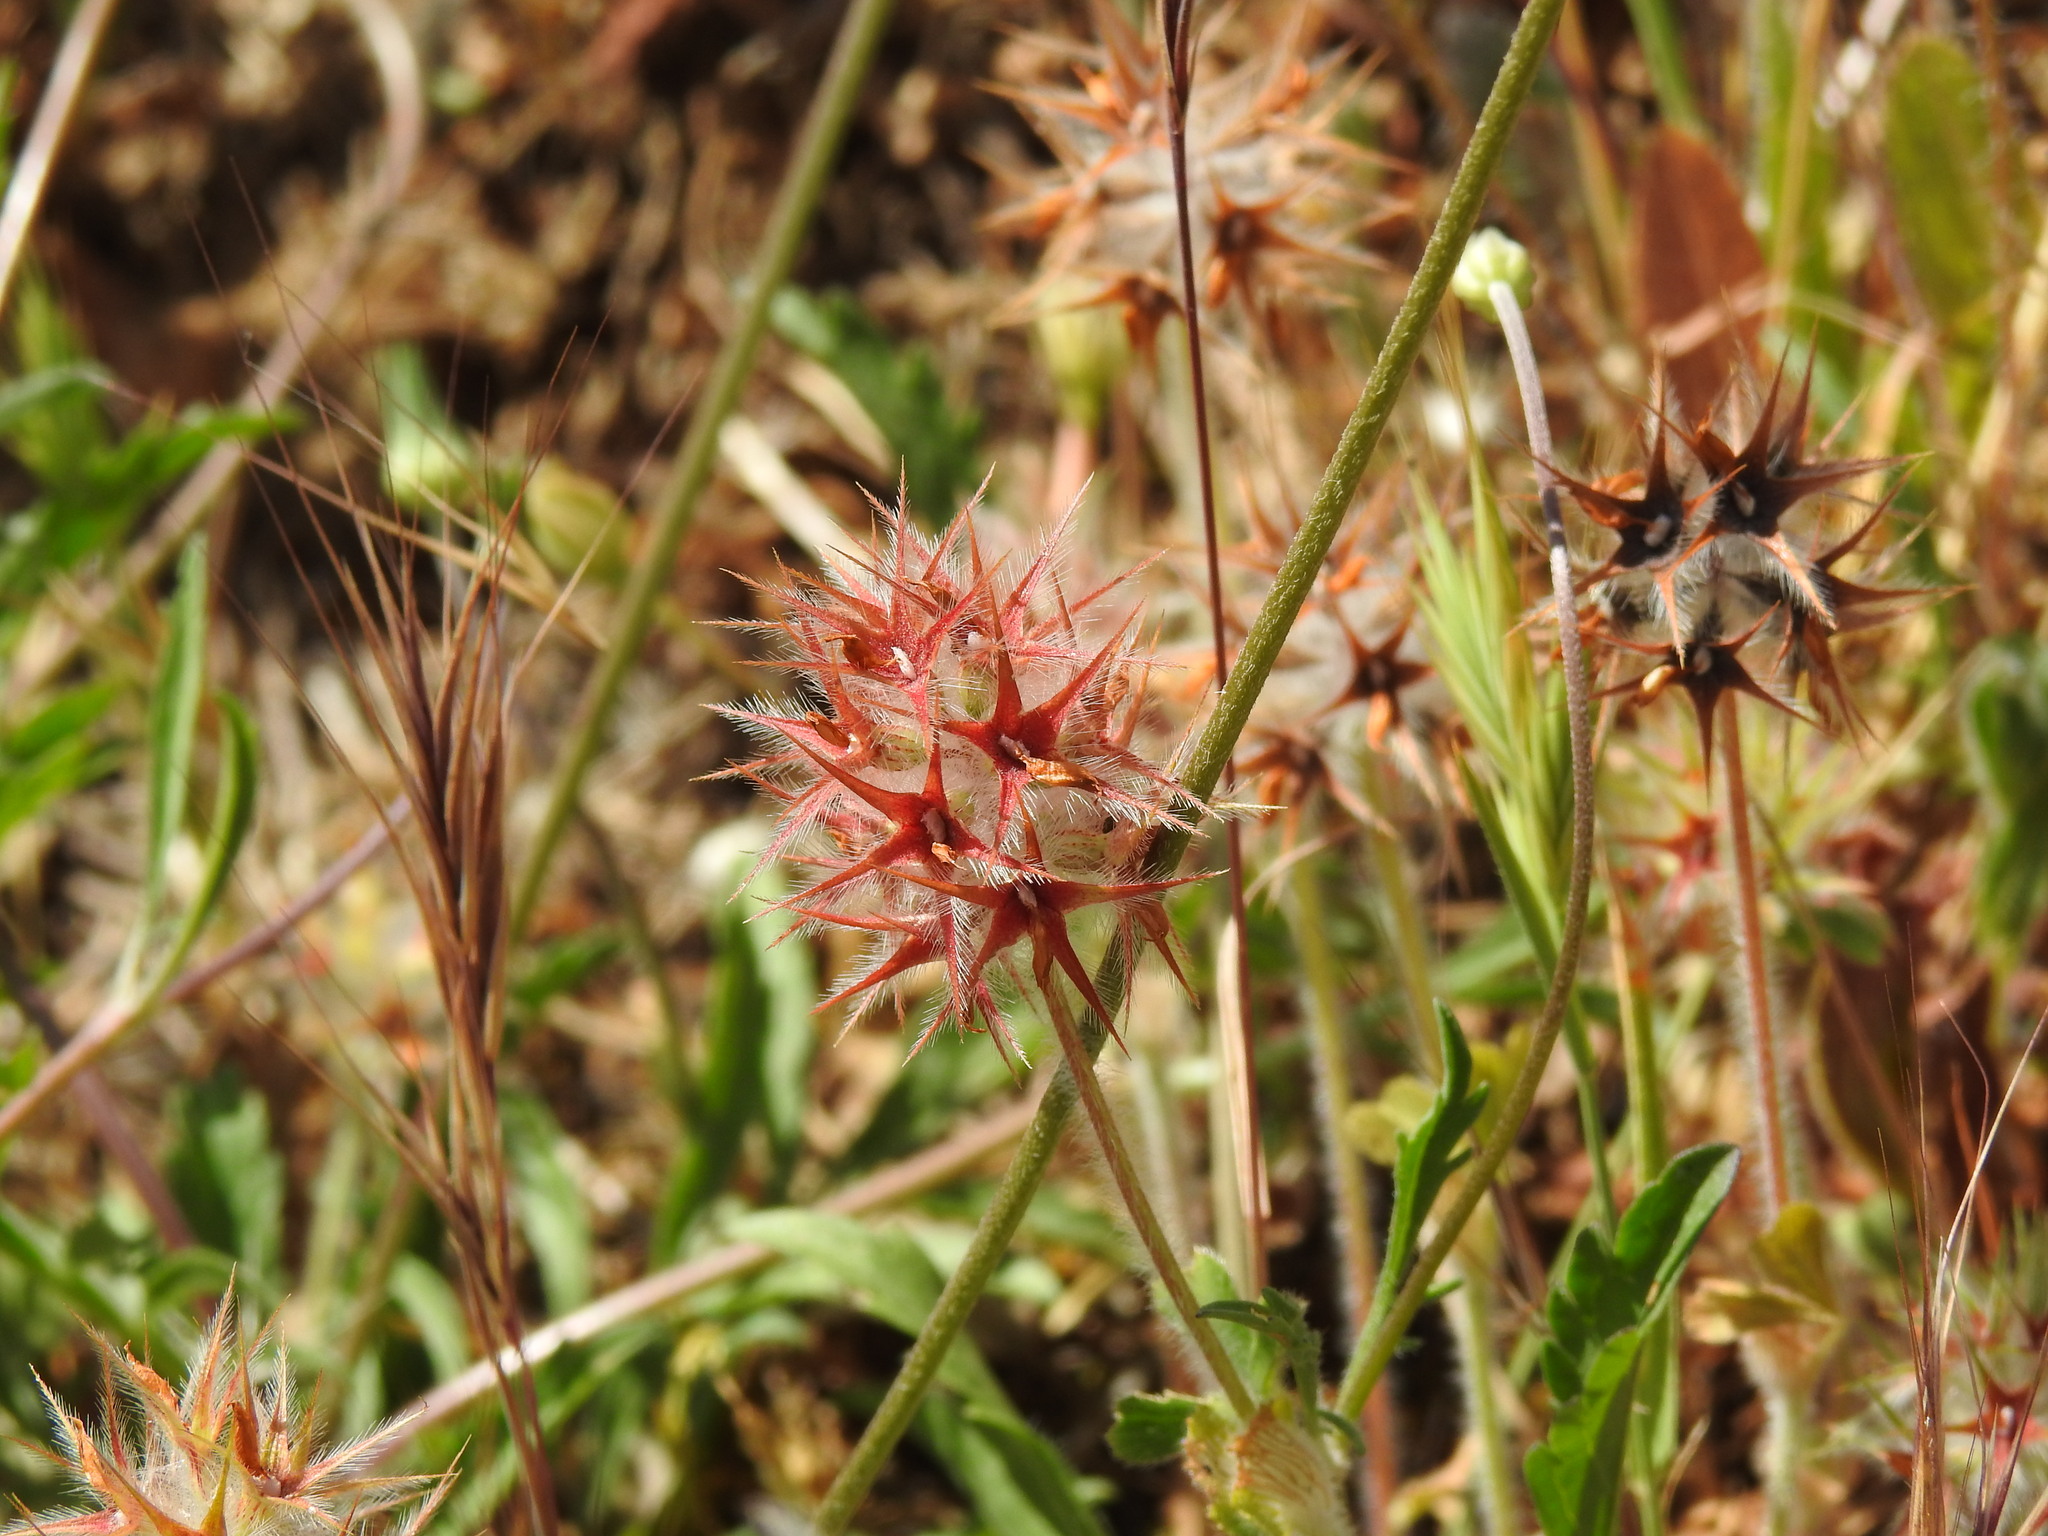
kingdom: Plantae
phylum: Tracheophyta
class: Magnoliopsida
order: Fabales
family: Fabaceae
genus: Trifolium
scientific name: Trifolium stellatum
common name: Starry clover
